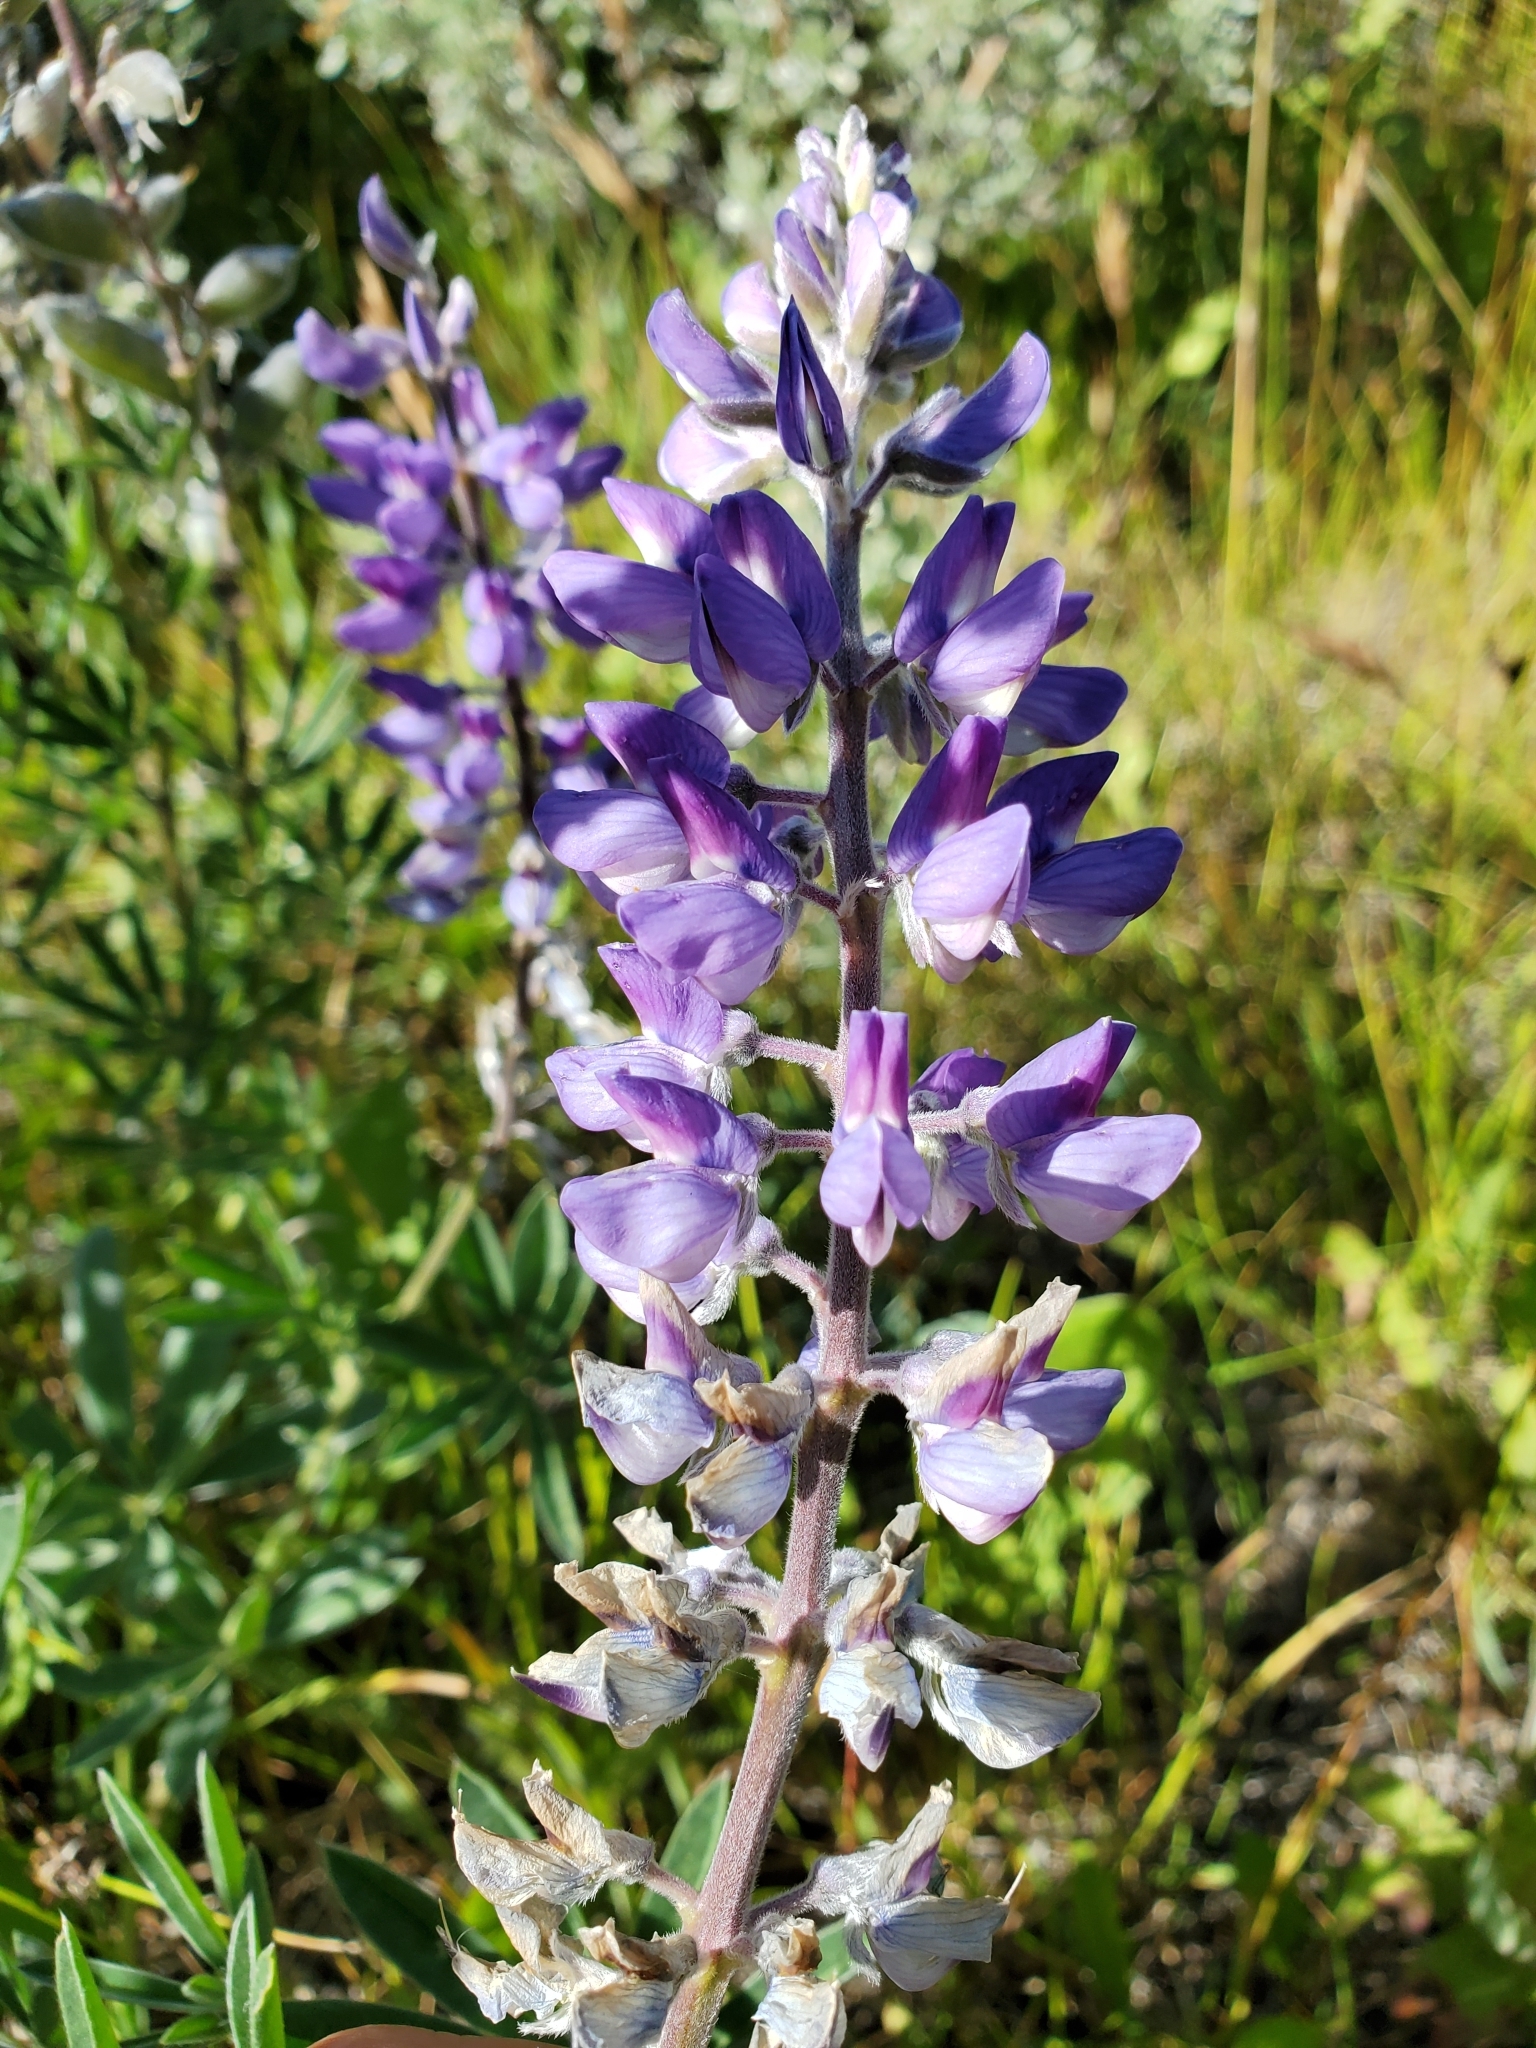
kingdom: Plantae
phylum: Tracheophyta
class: Magnoliopsida
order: Fabales
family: Fabaceae
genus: Lupinus
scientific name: Lupinus sericeus
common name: Silky lupine
